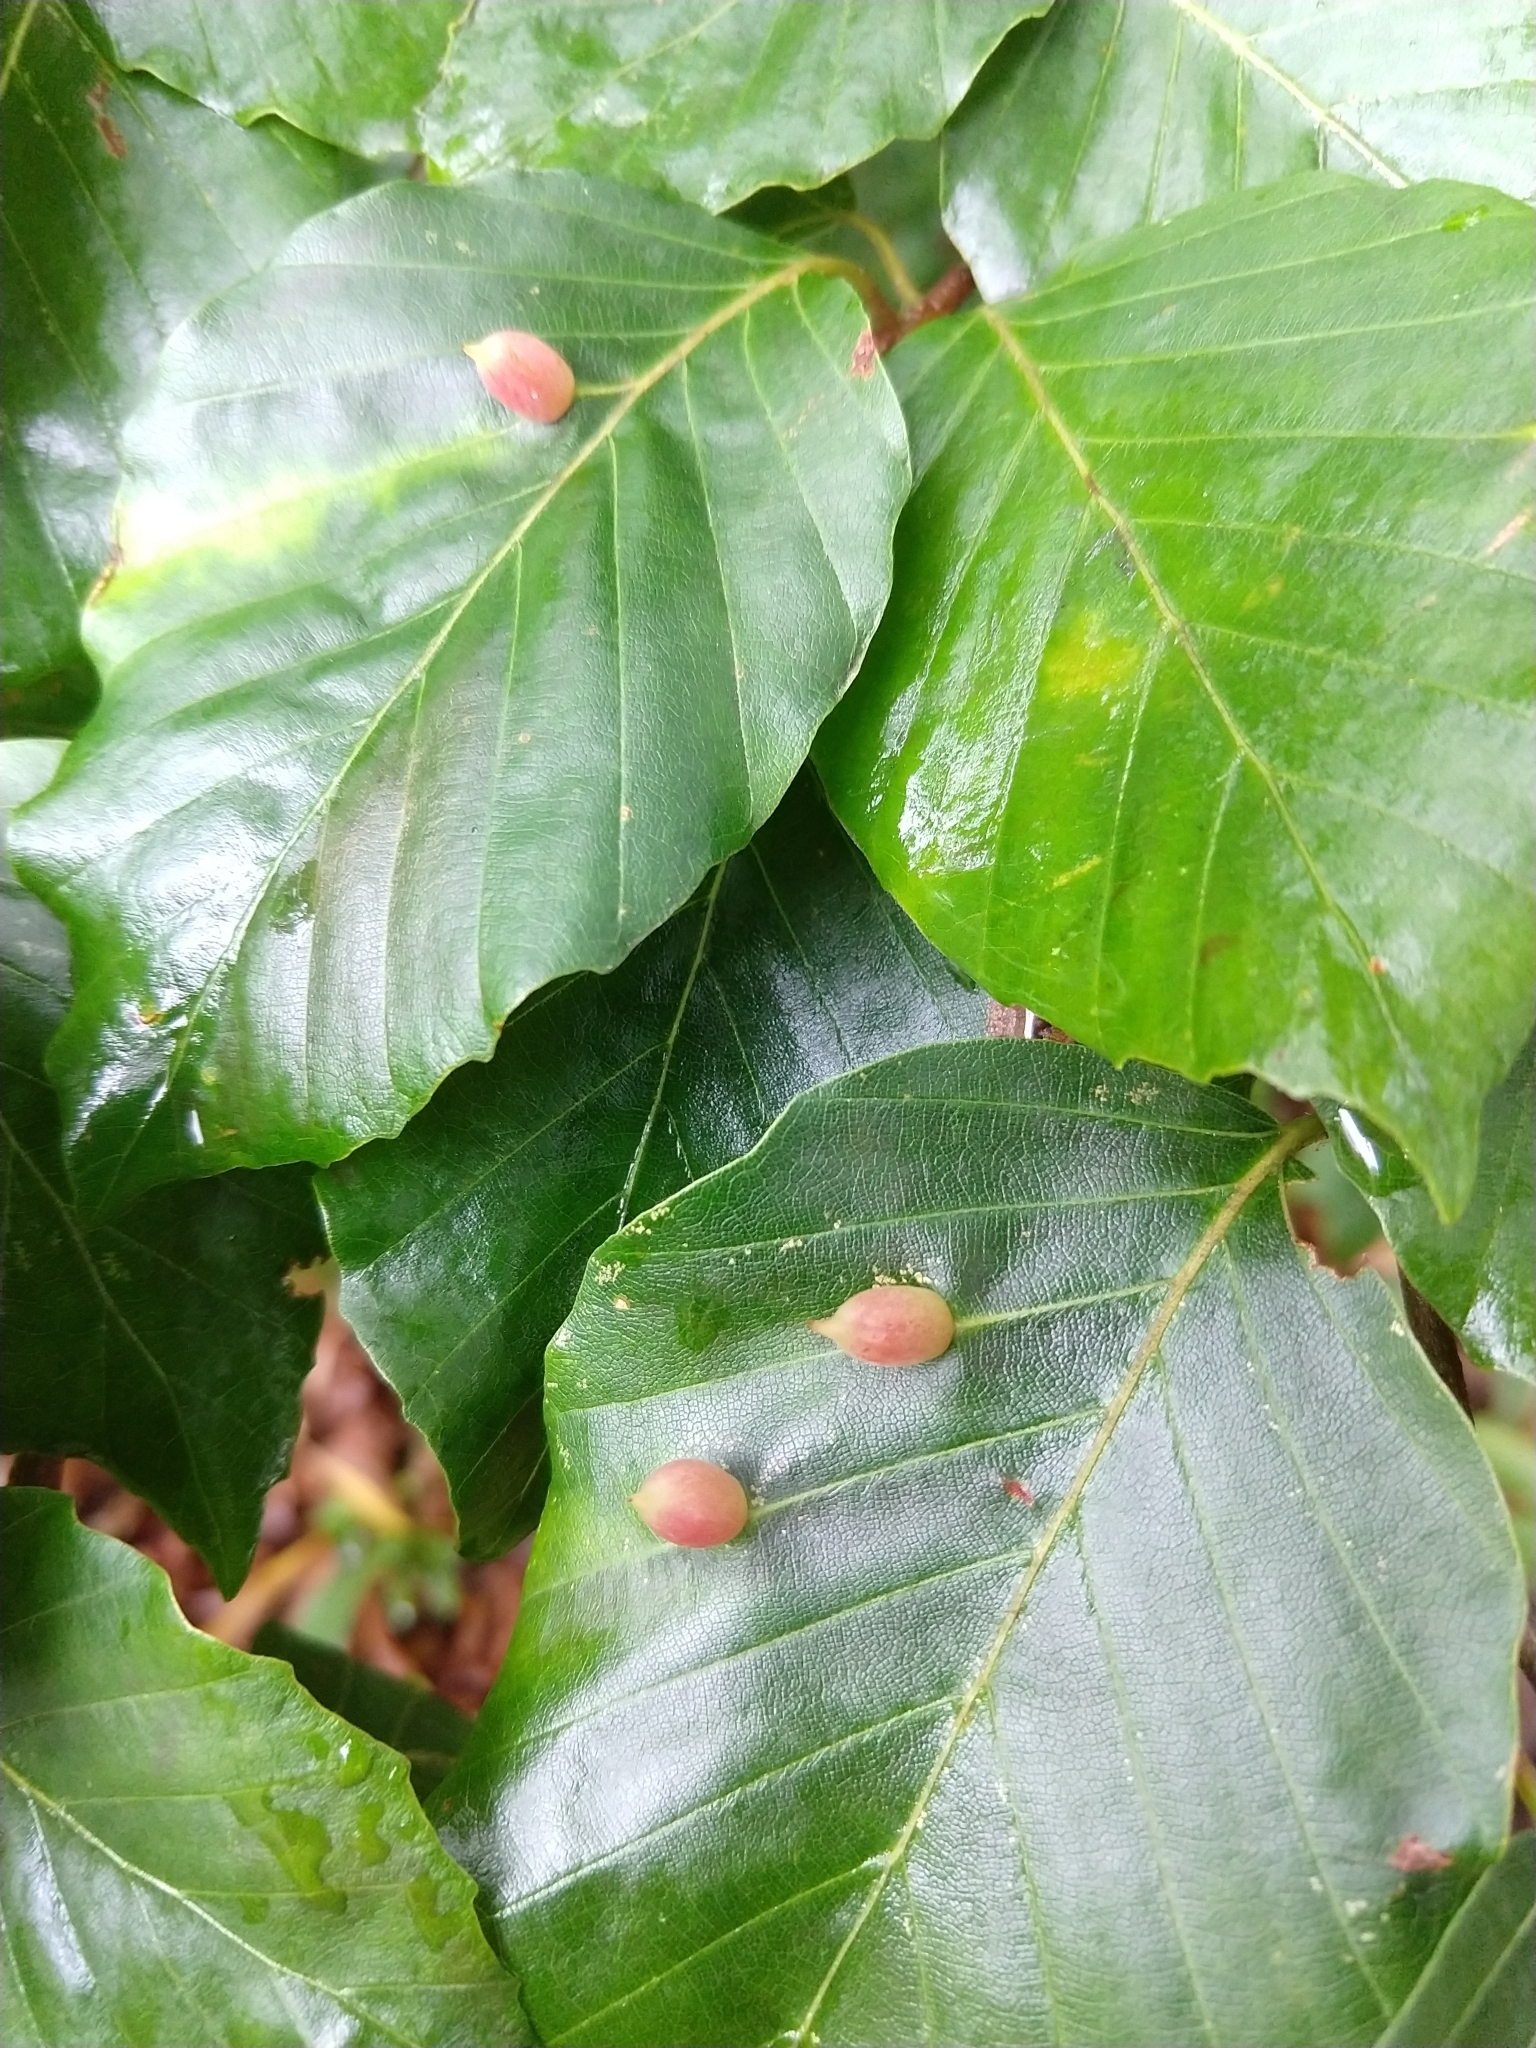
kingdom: Animalia
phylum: Arthropoda
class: Insecta
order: Diptera
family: Cecidomyiidae
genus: Mikiola
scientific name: Mikiola fagi
